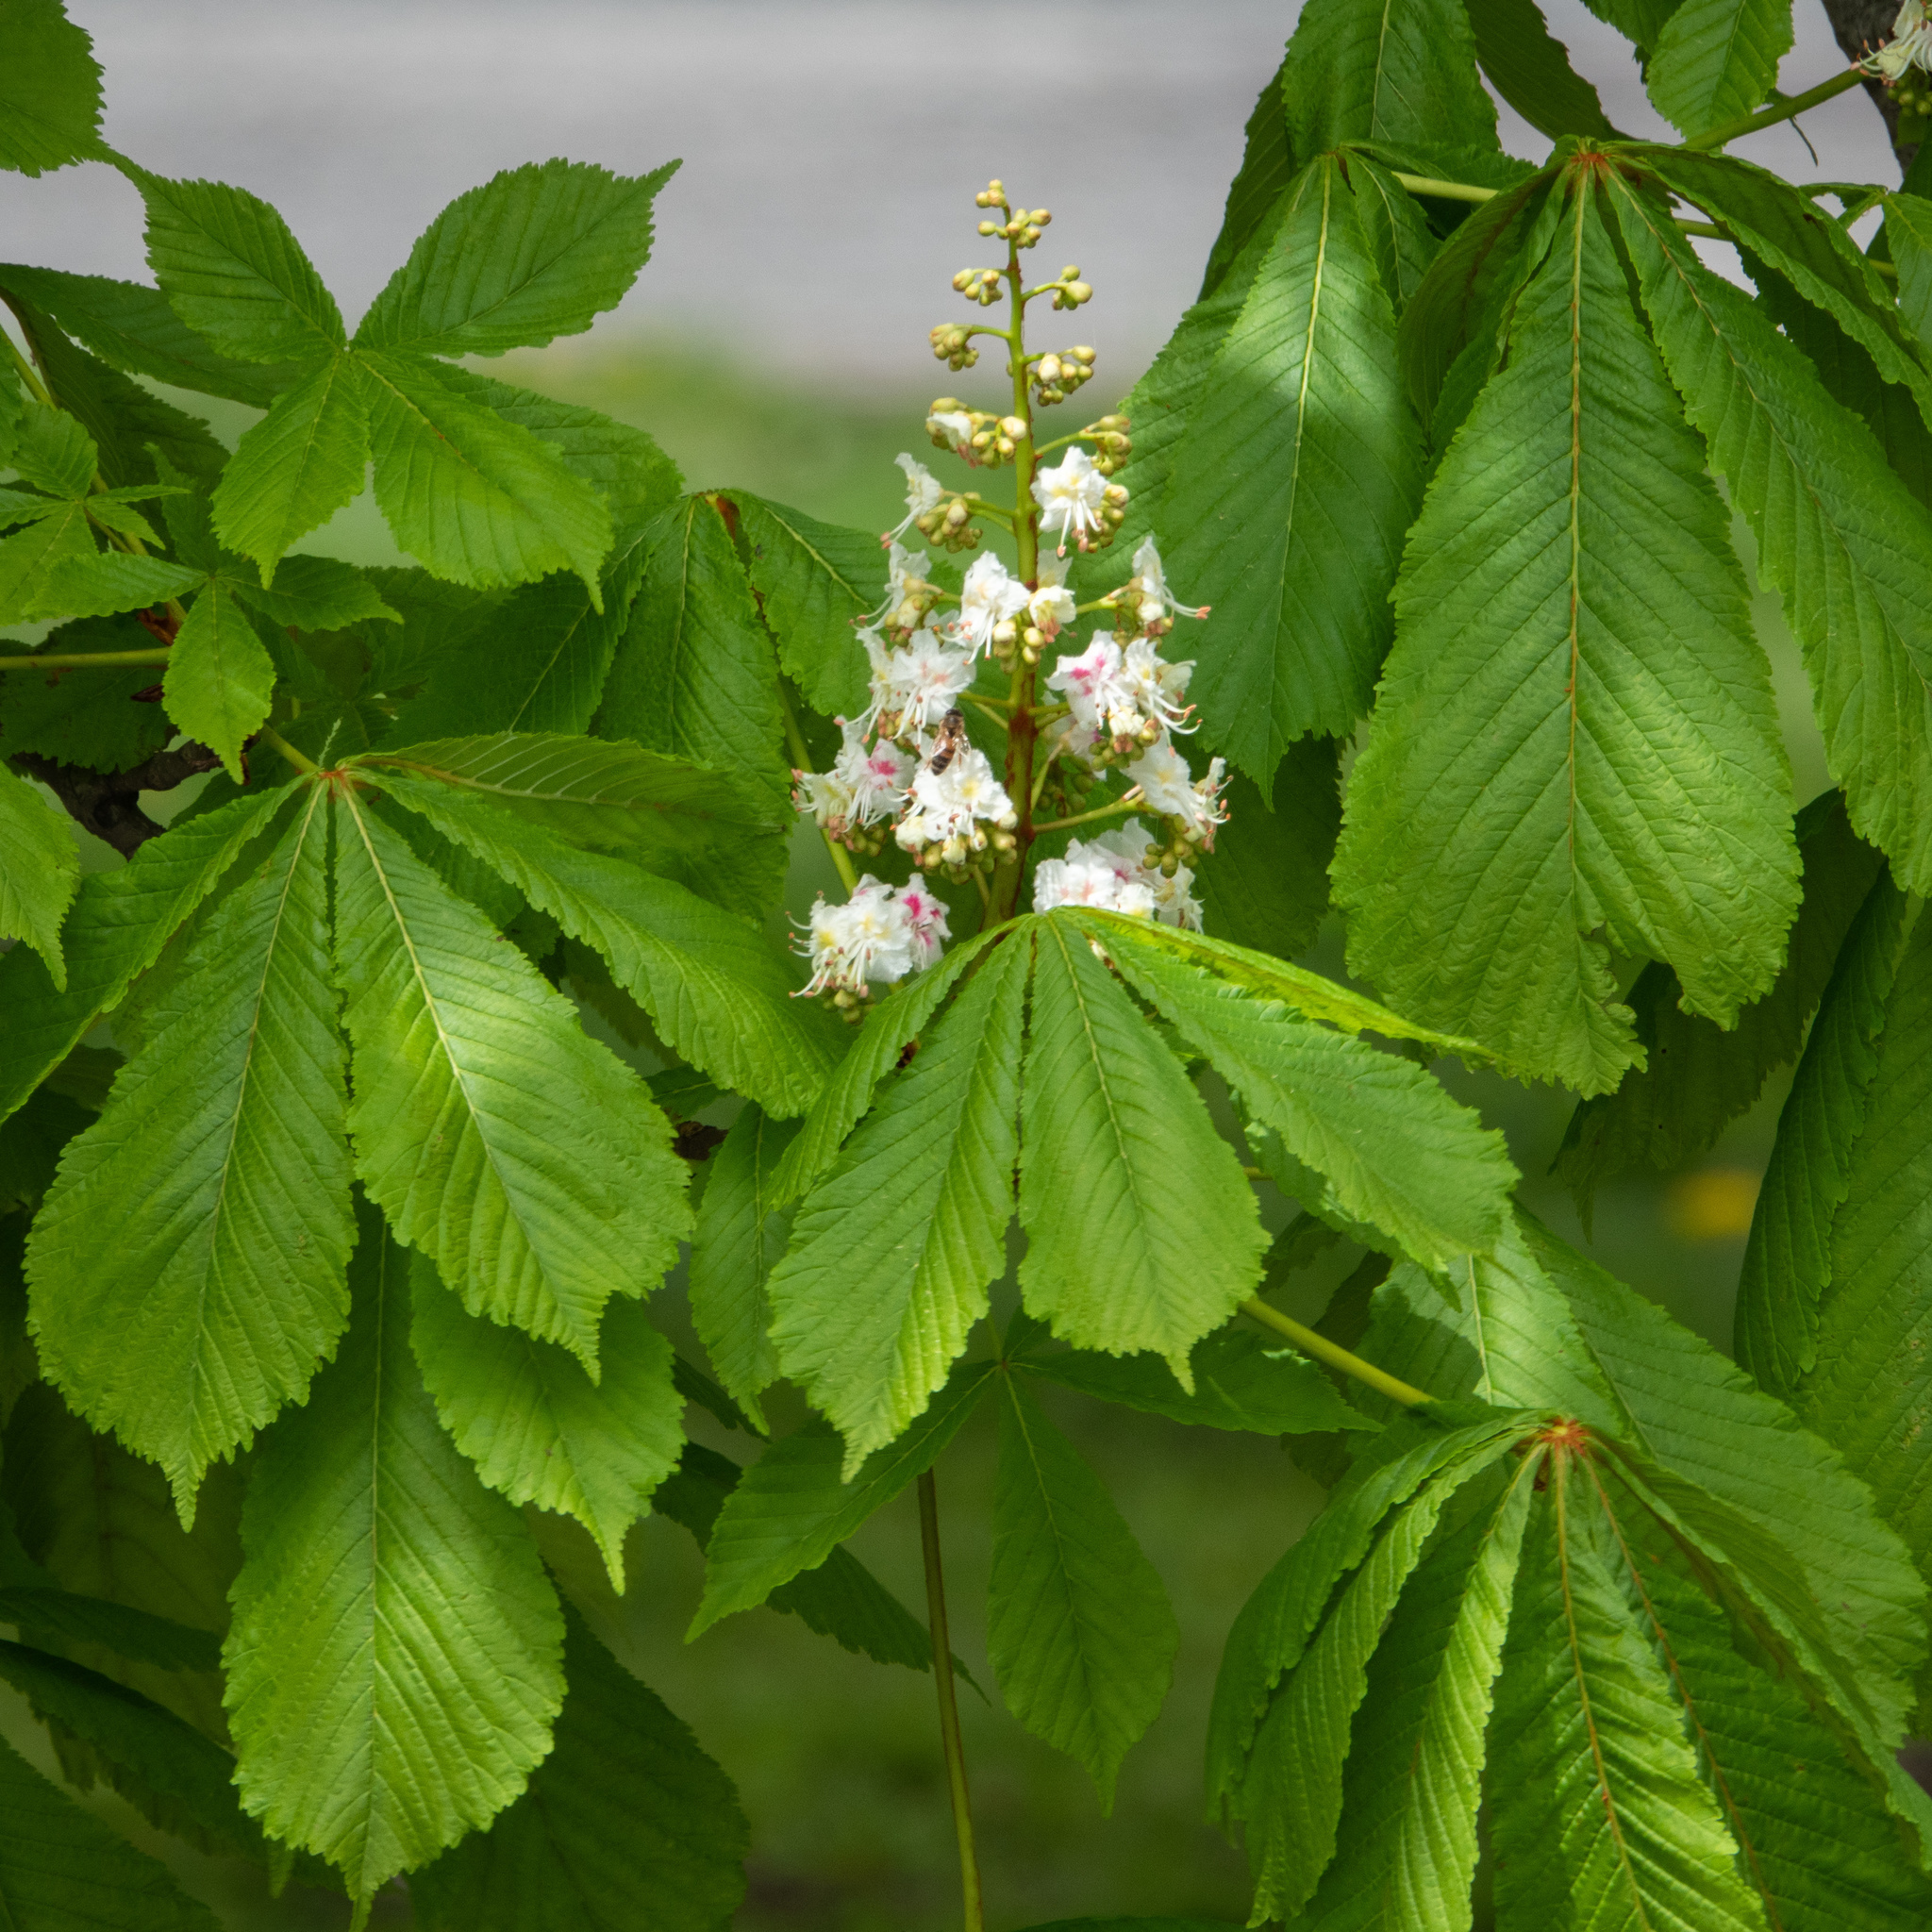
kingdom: Plantae
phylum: Tracheophyta
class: Magnoliopsida
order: Sapindales
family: Sapindaceae
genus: Aesculus
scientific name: Aesculus hippocastanum
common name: Horse-chestnut
